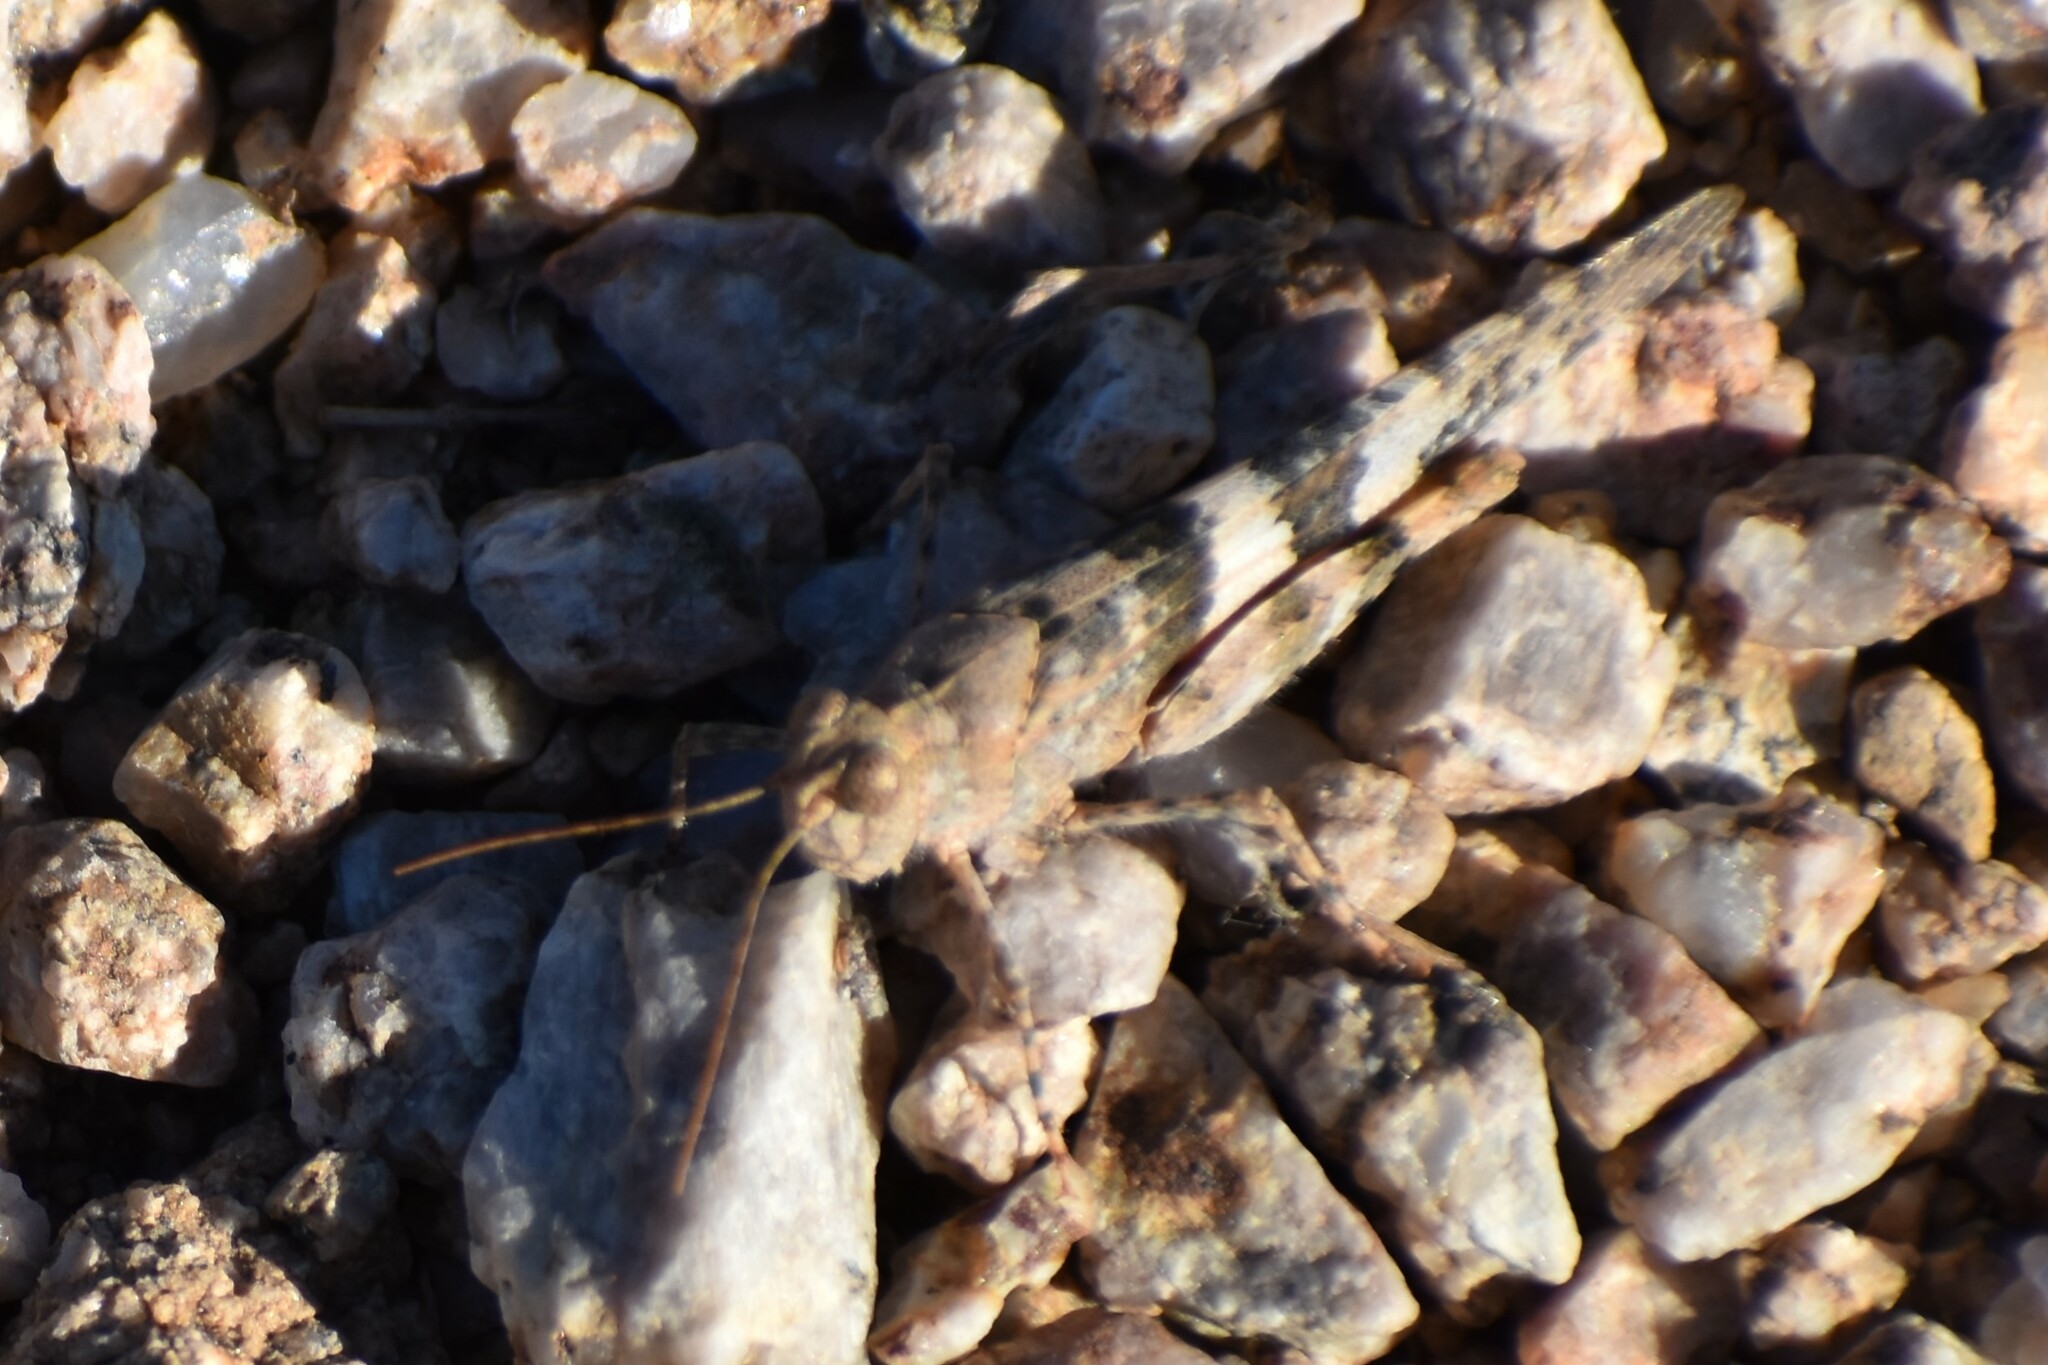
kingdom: Animalia
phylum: Arthropoda
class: Insecta
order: Orthoptera
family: Acrididae
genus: Trimerotropis
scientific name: Trimerotropis pallidipennis
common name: Pallid-winged grasshopper
